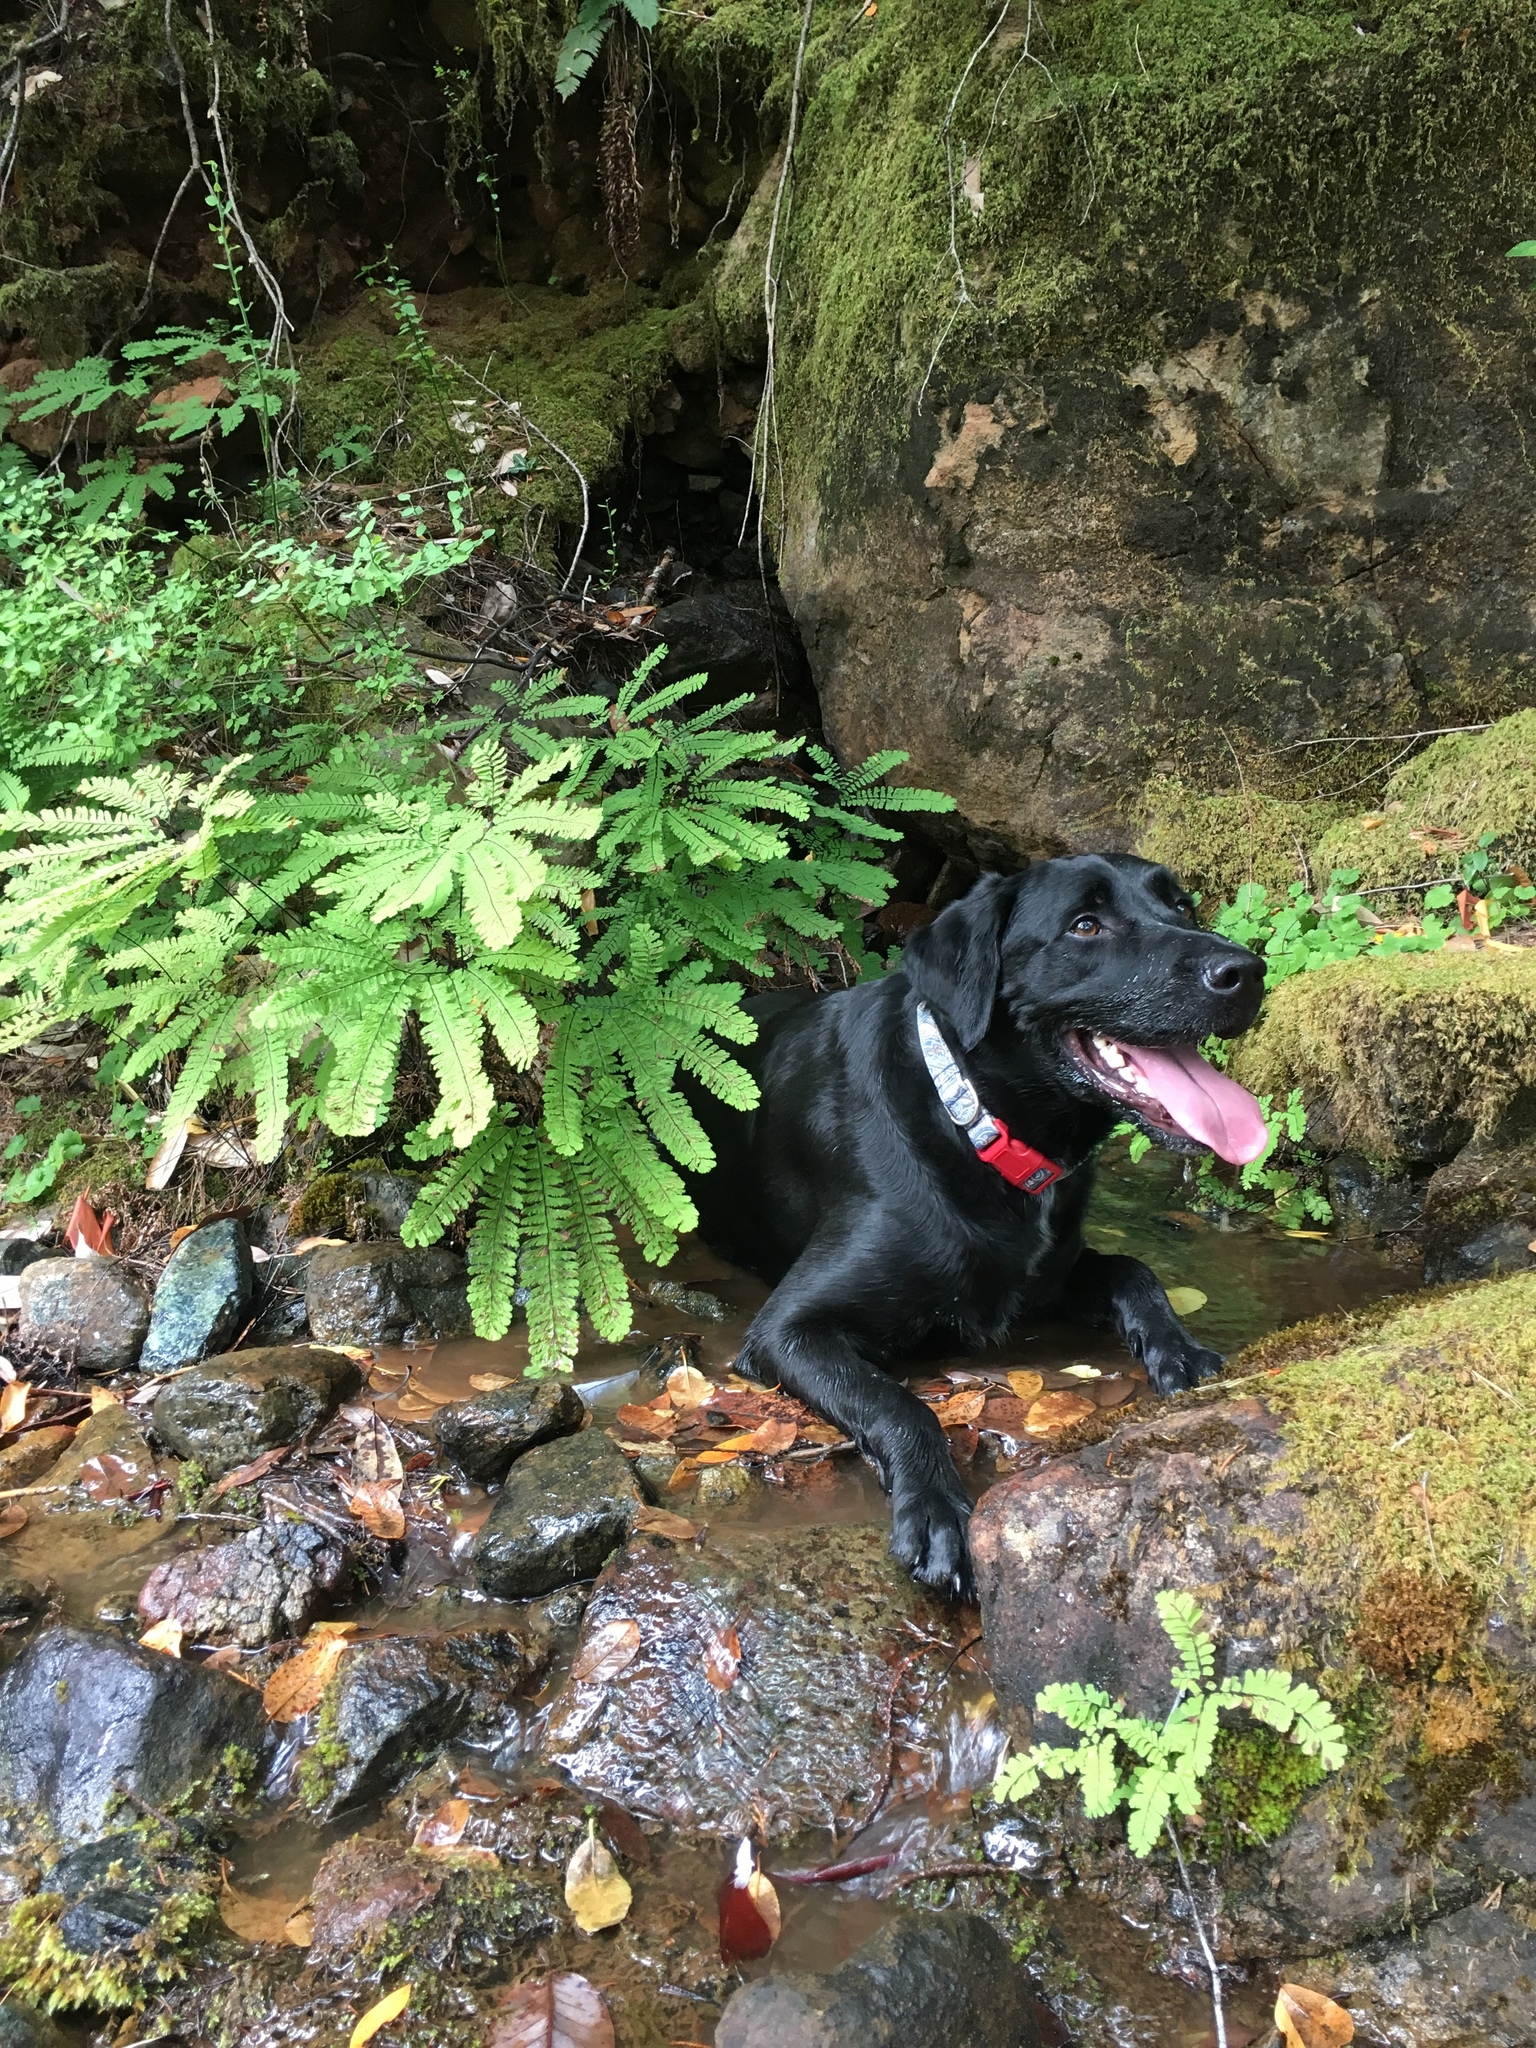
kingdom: Plantae
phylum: Tracheophyta
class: Polypodiopsida
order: Polypodiales
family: Pteridaceae
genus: Adiantum
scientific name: Adiantum aleuticum
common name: Aleutian maidenhair fern
